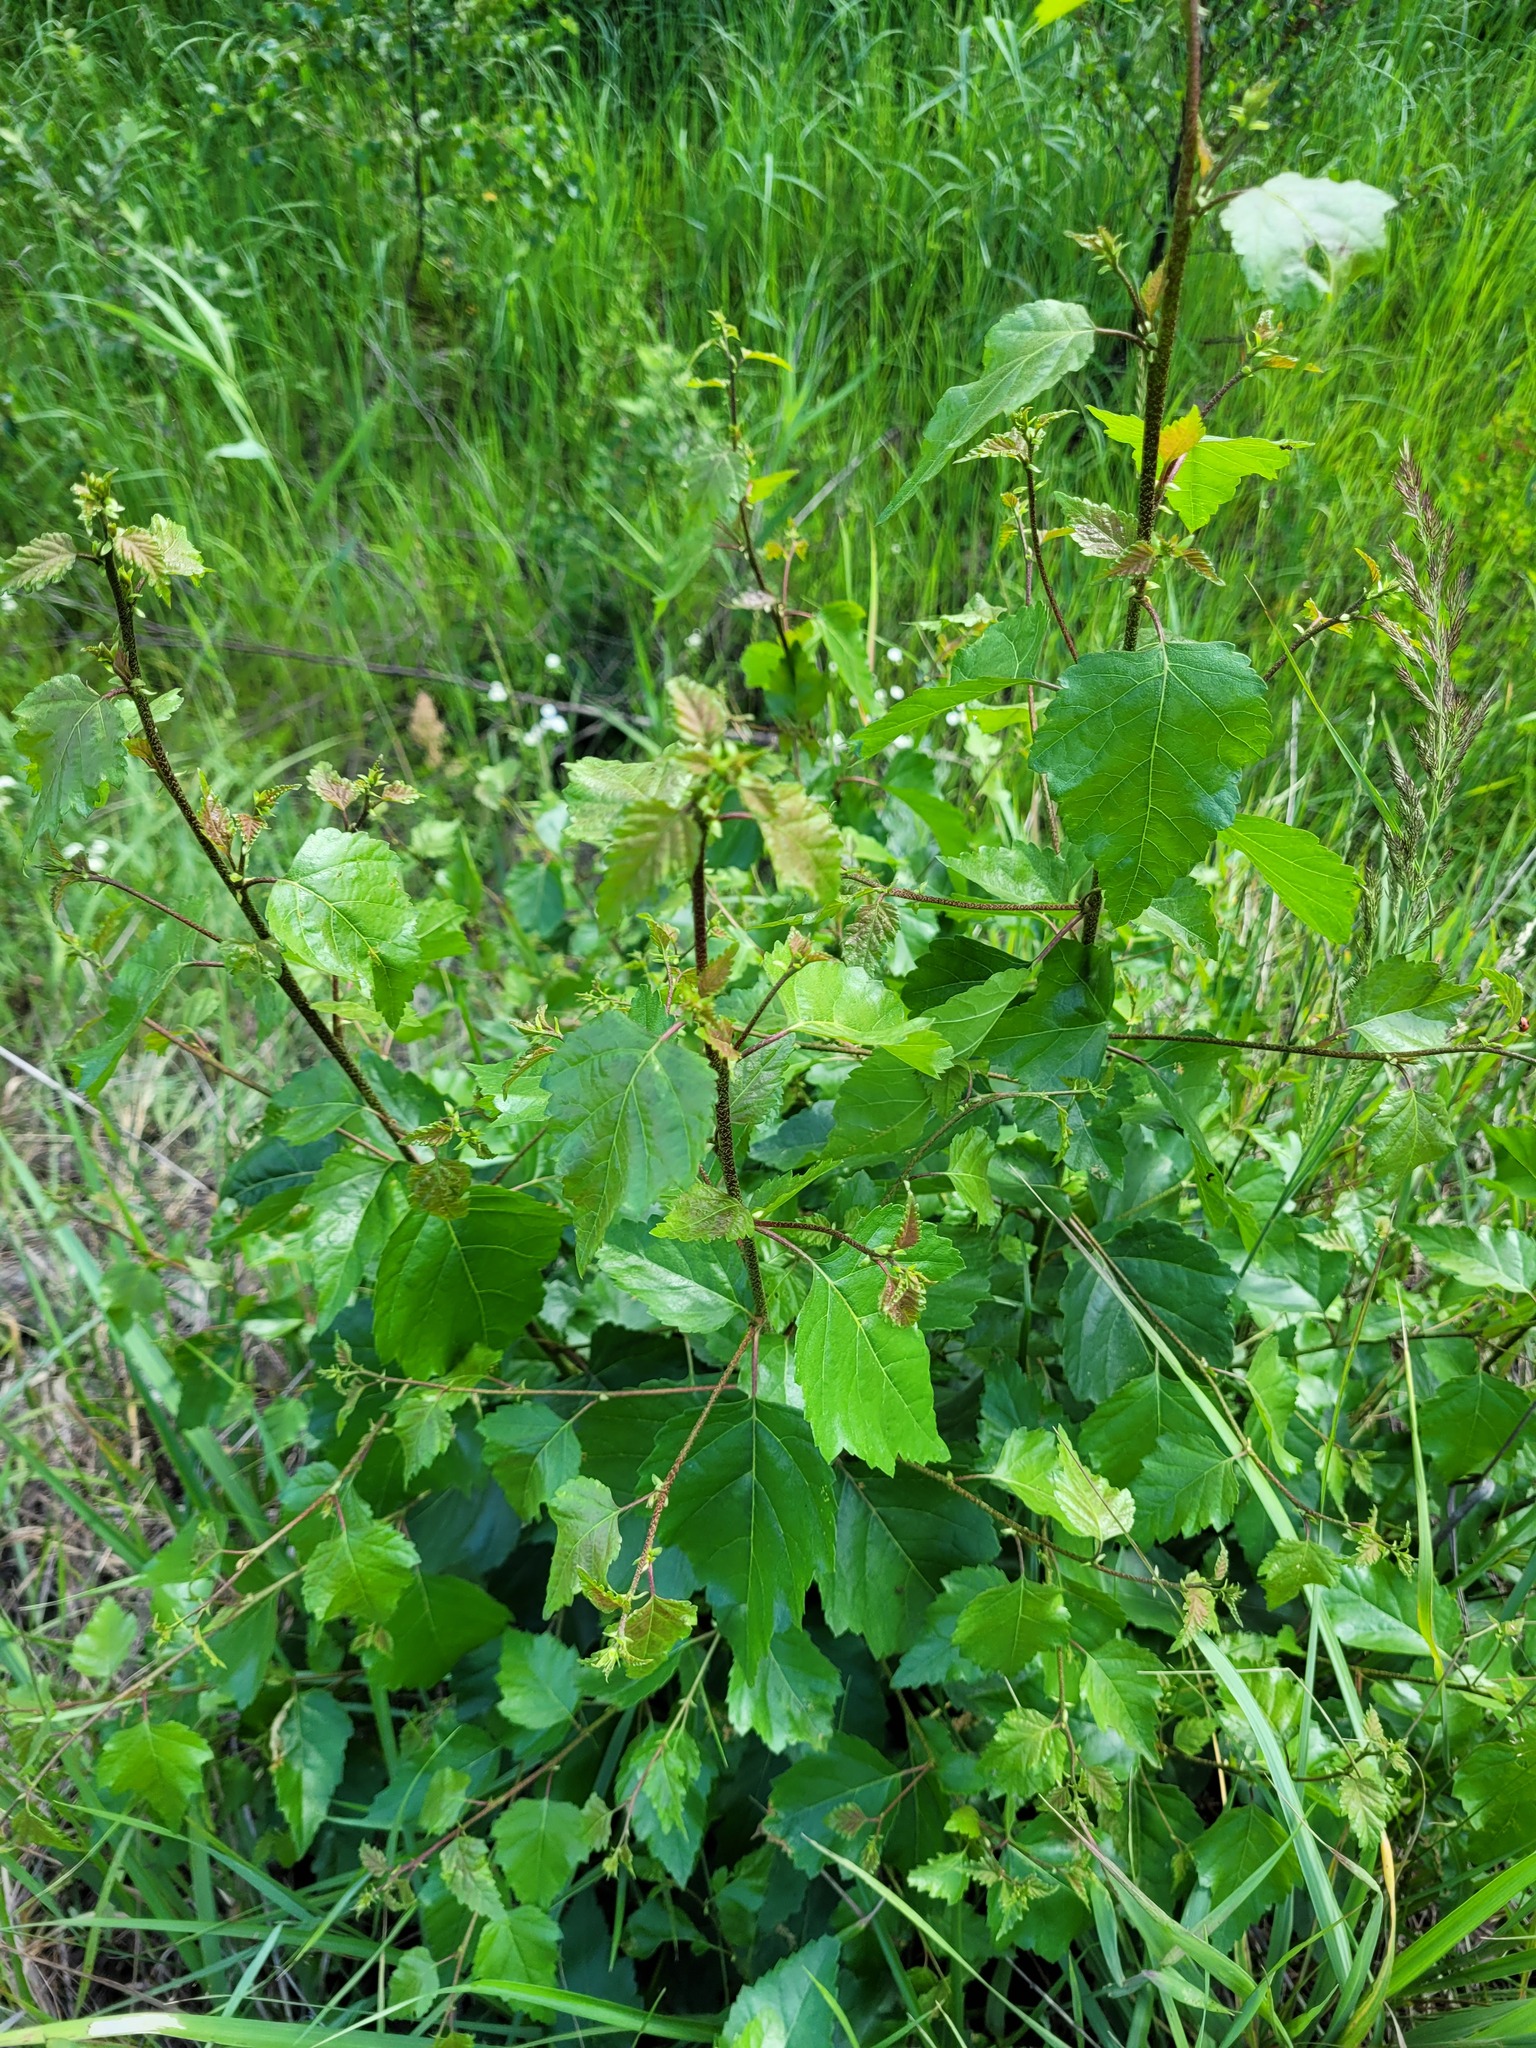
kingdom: Plantae
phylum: Tracheophyta
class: Magnoliopsida
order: Fagales
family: Betulaceae
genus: Betula
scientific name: Betula pendula
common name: Silver birch
